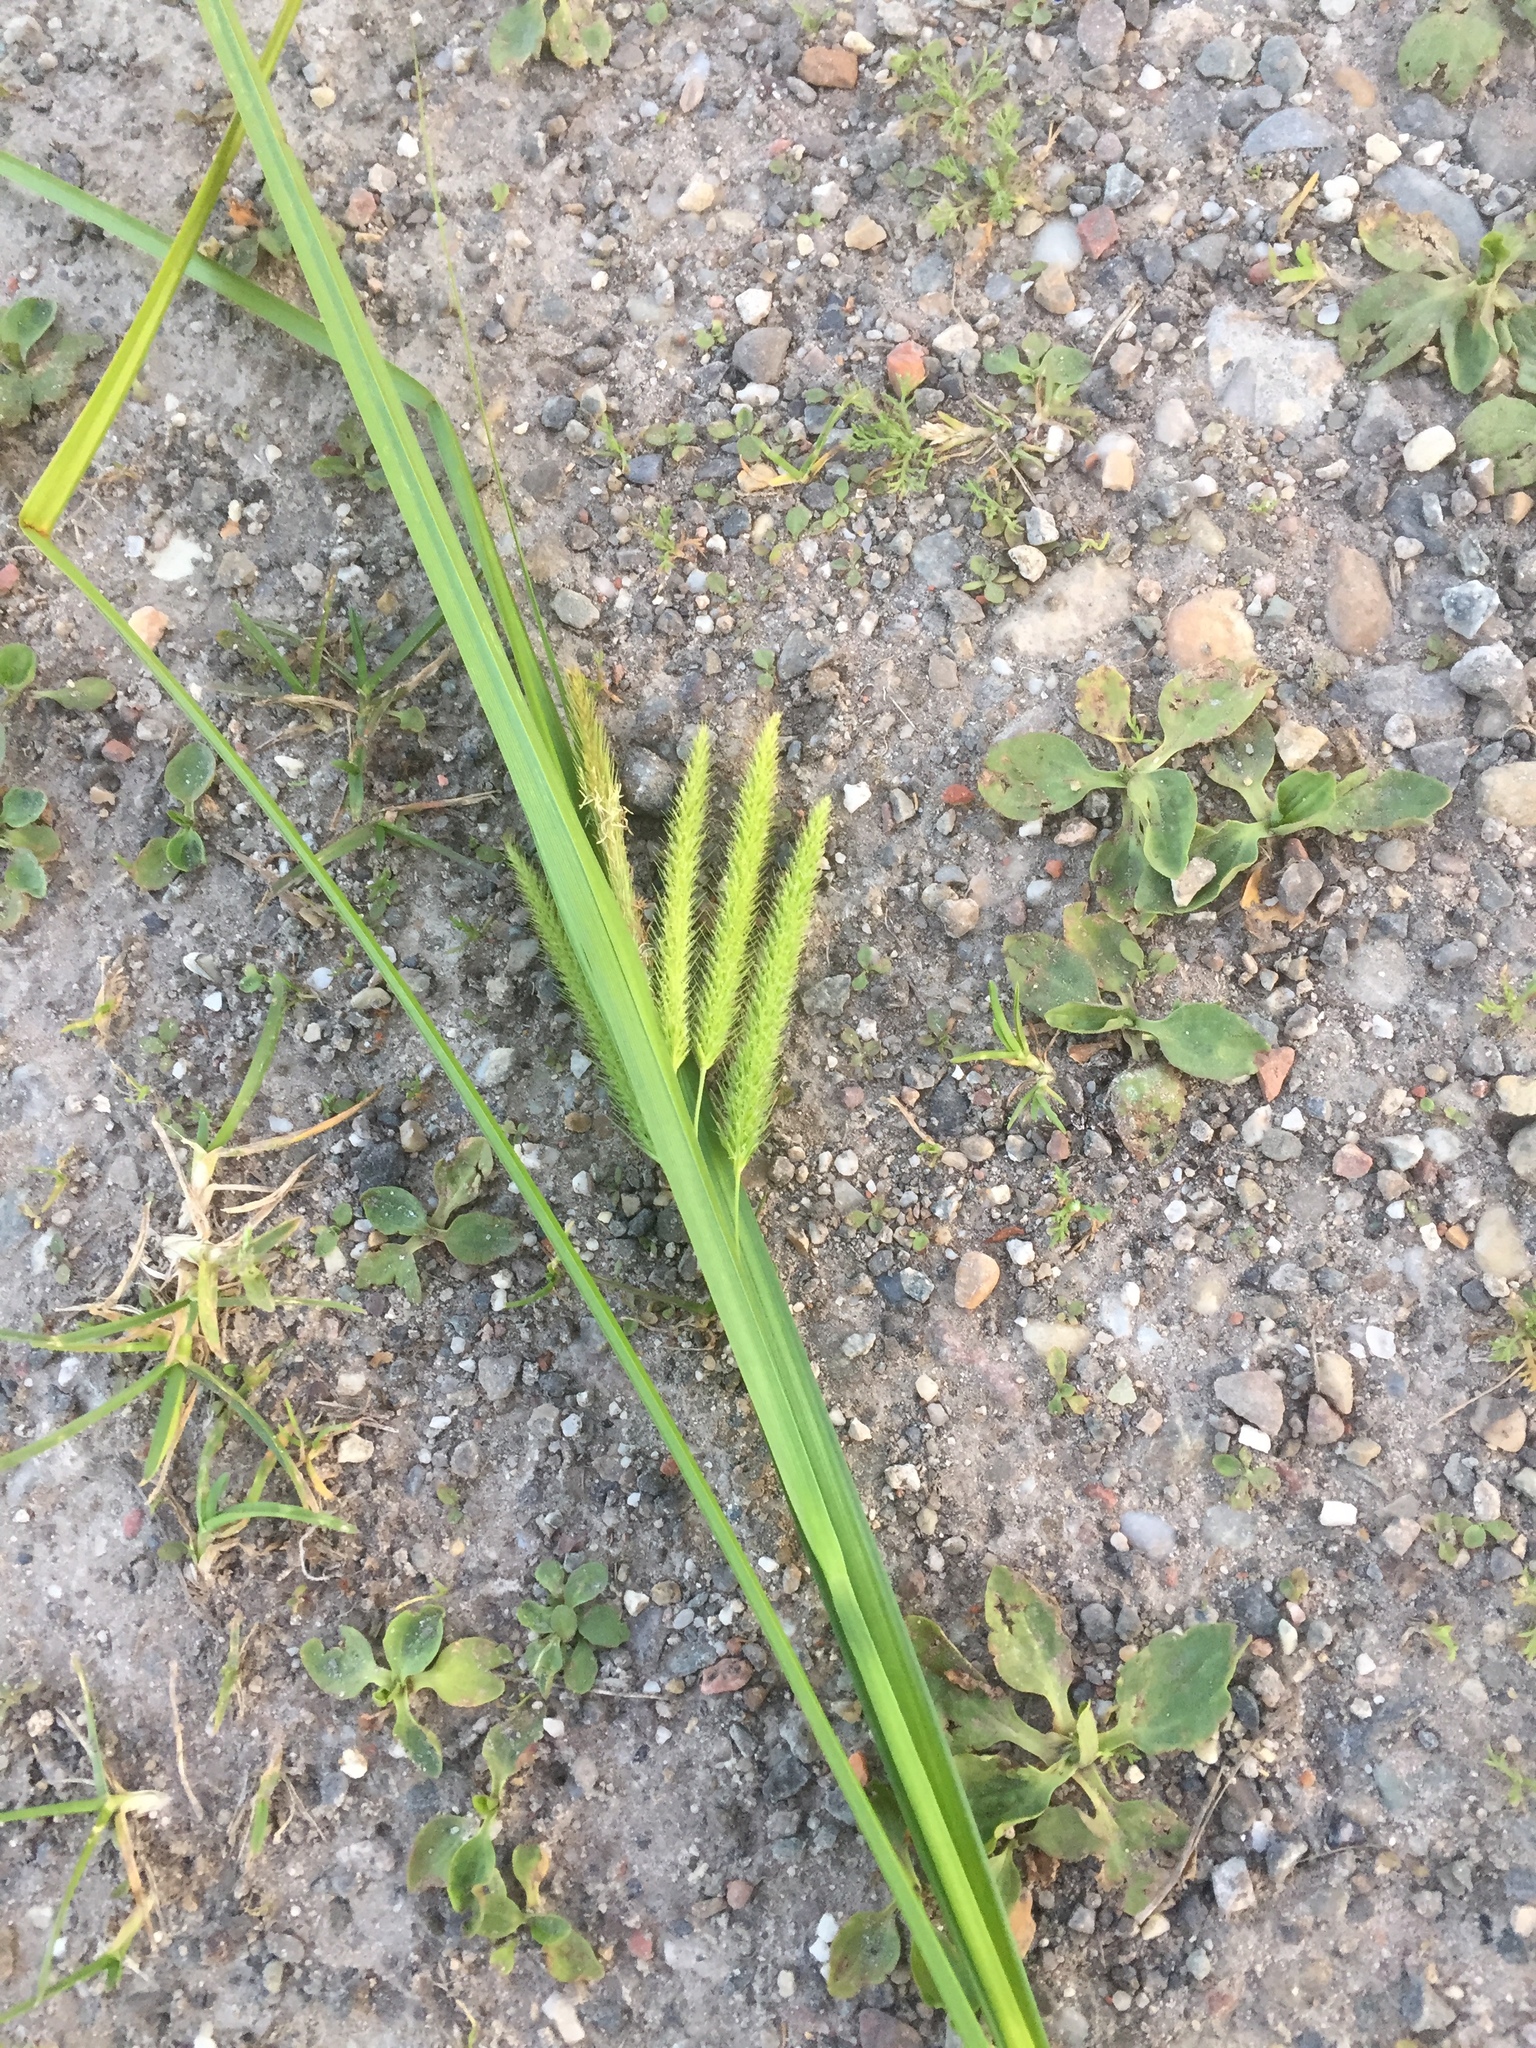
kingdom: Plantae
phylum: Tracheophyta
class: Liliopsida
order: Poales
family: Cyperaceae
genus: Carex
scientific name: Carex pseudocyperus
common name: Cyperus sedge
